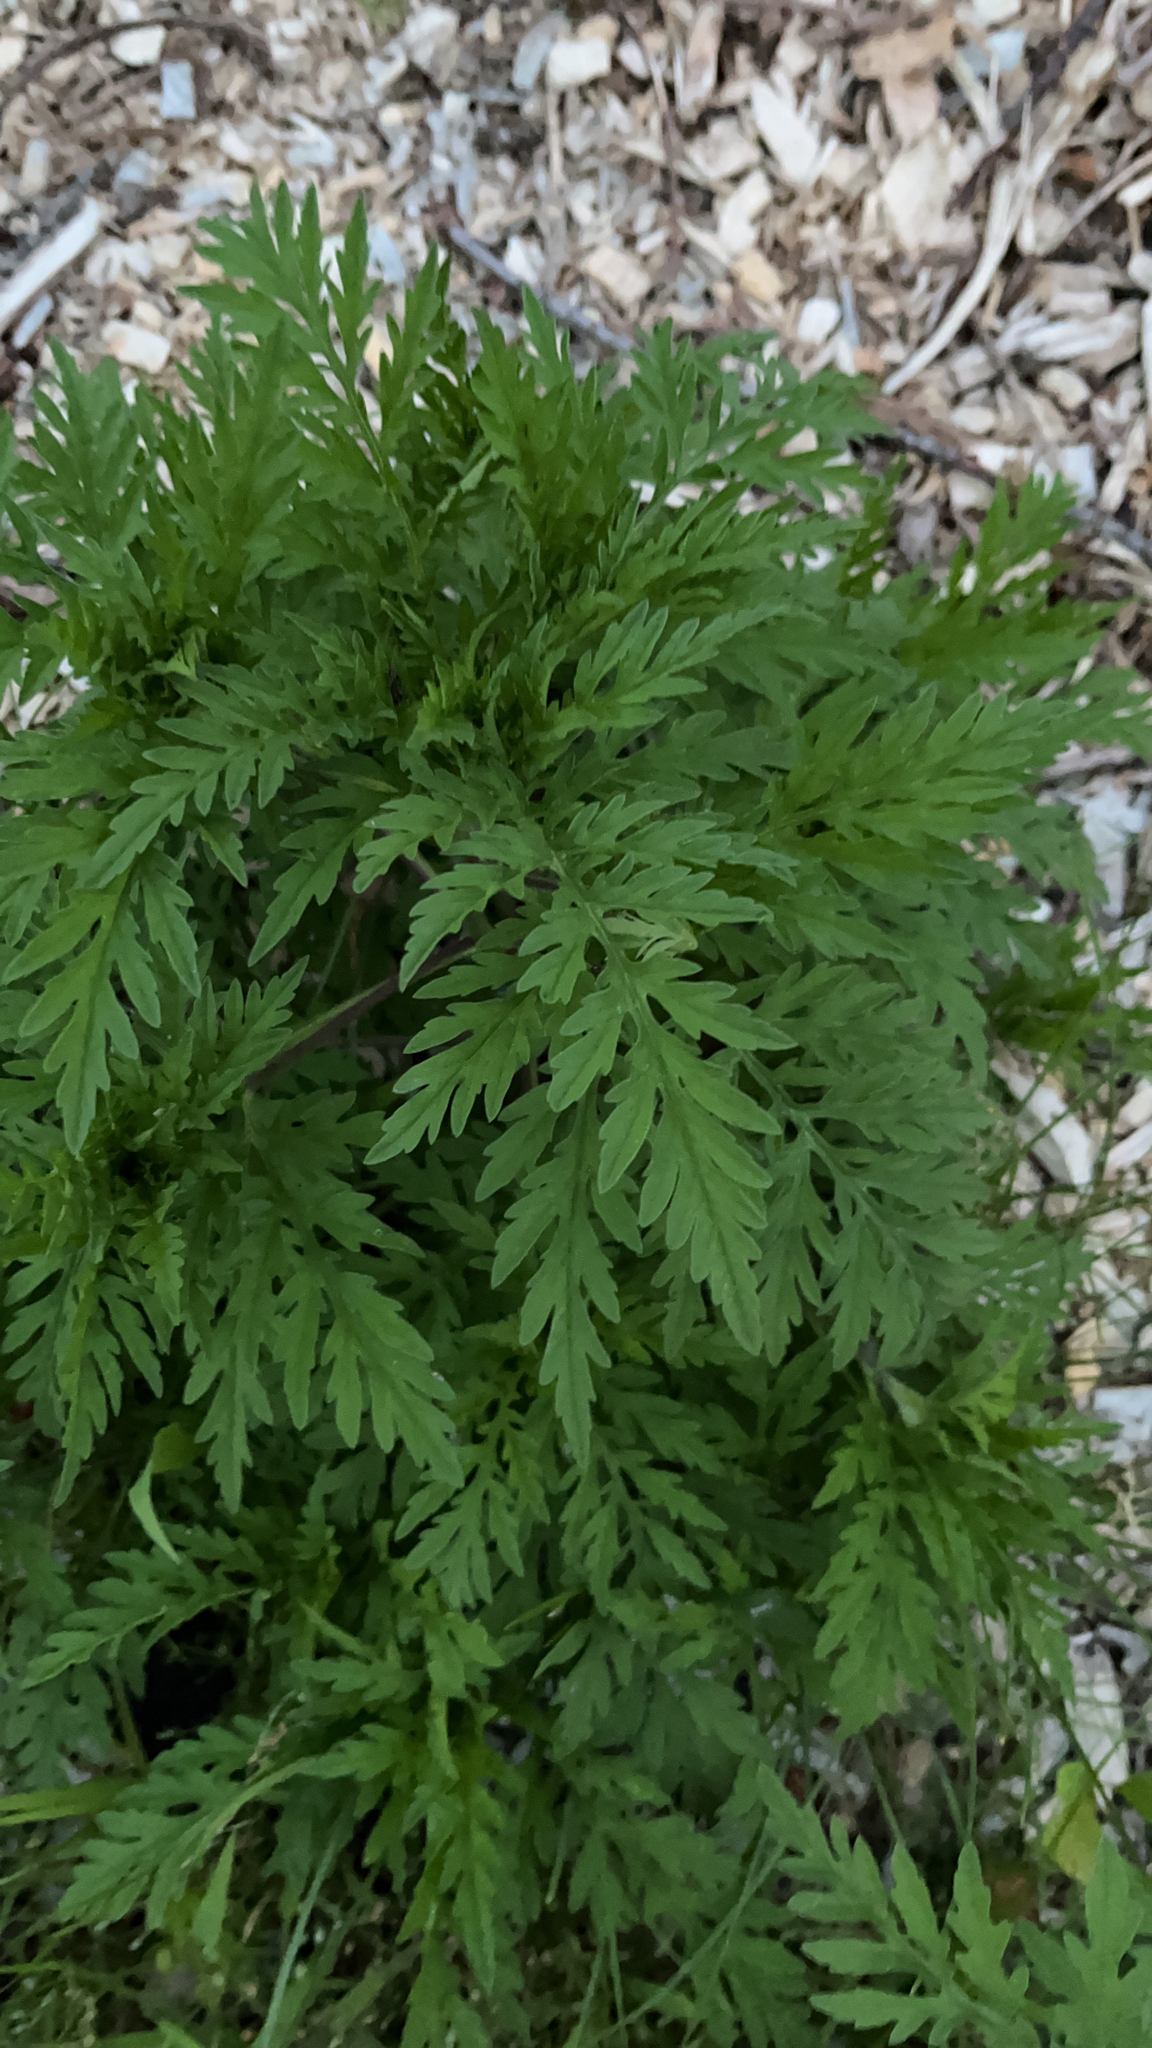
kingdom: Plantae
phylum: Tracheophyta
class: Magnoliopsida
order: Asterales
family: Asteraceae
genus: Ambrosia
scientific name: Ambrosia artemisiifolia
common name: Annual ragweed
